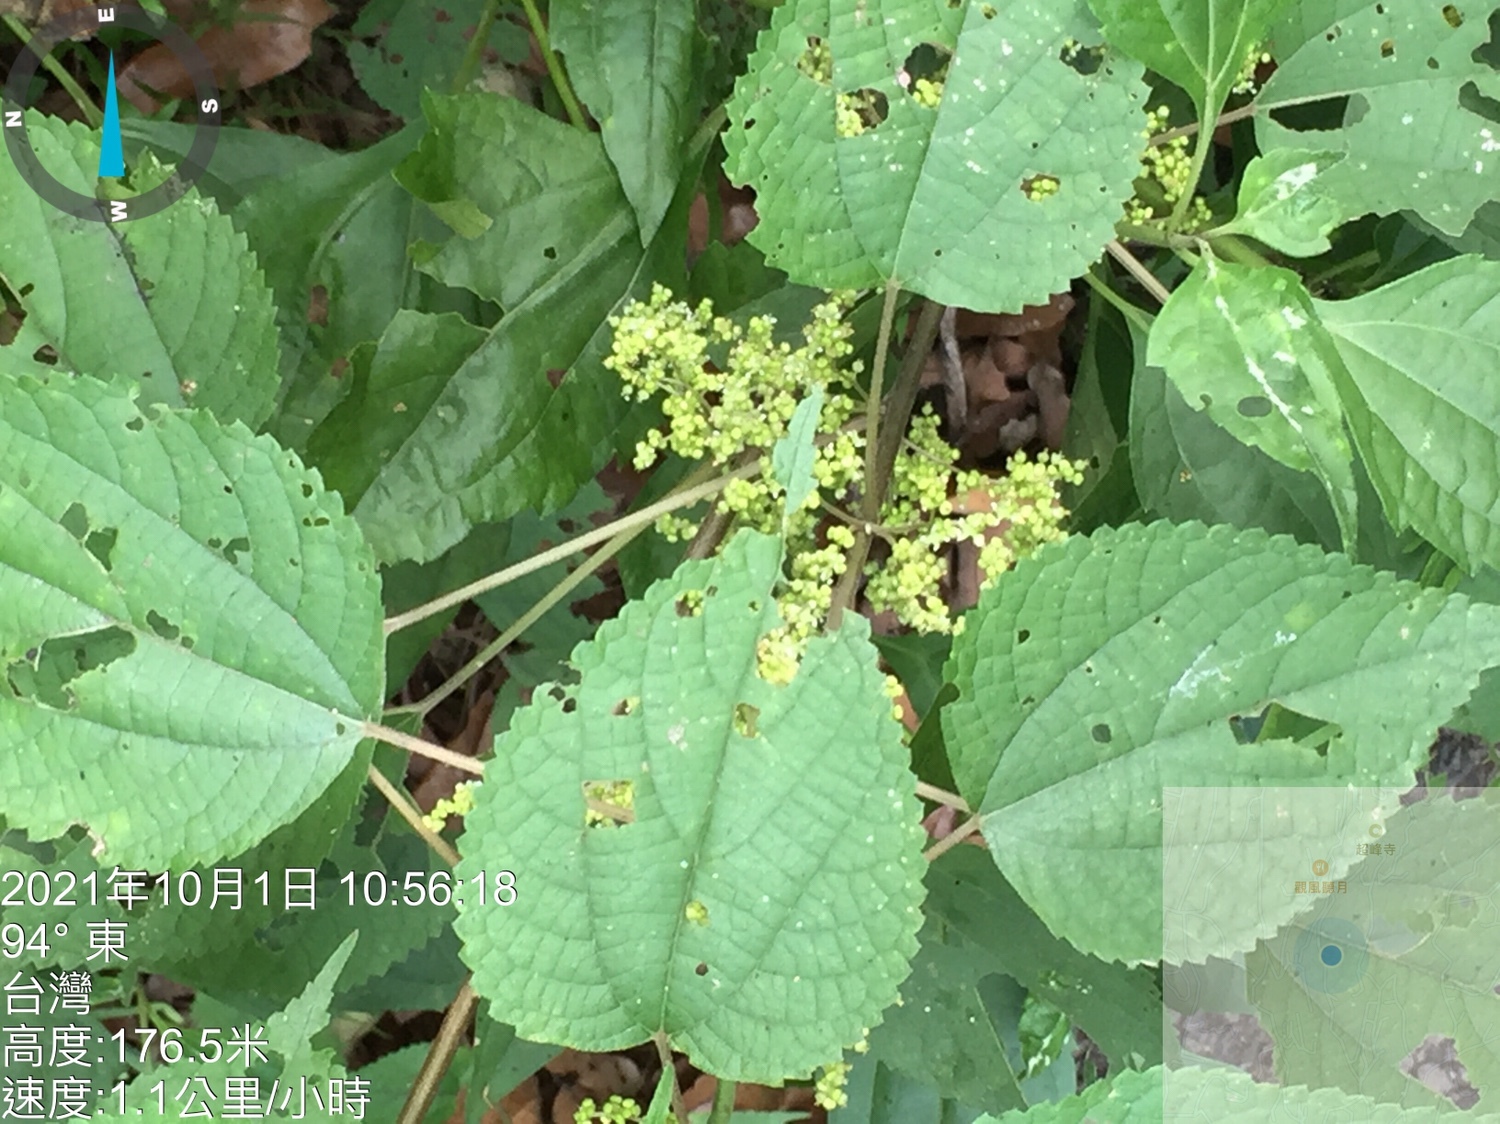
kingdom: Plantae
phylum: Tracheophyta
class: Magnoliopsida
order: Rosales
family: Urticaceae
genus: Boehmeria
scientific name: Boehmeria nivea
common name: Ramie chinese grass
